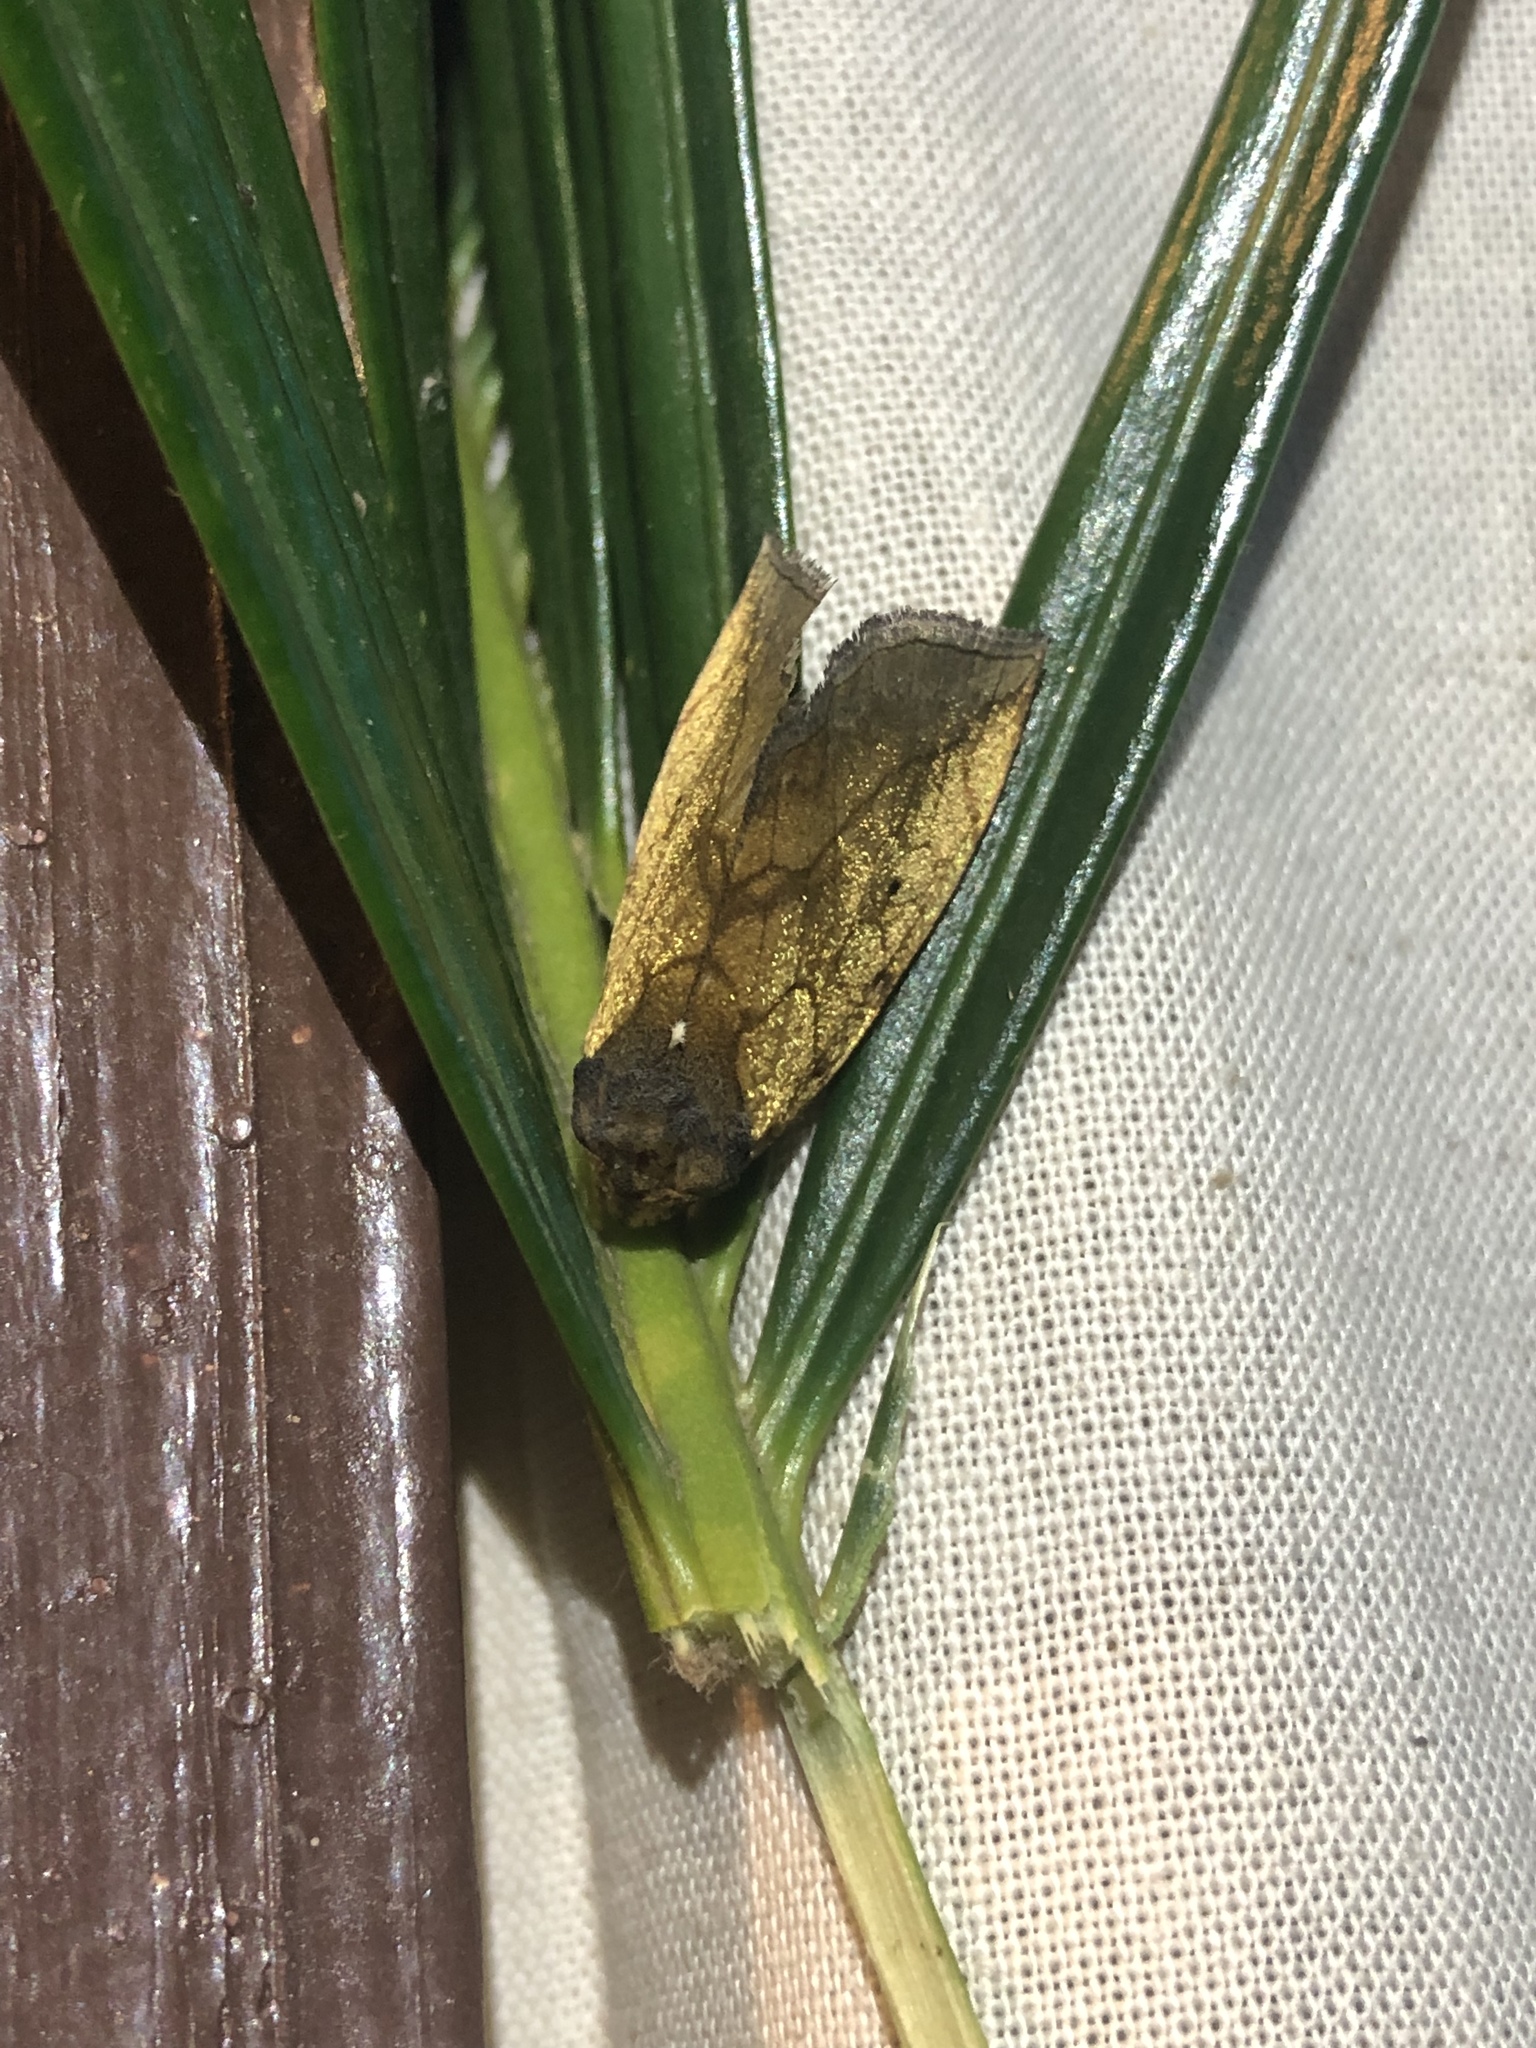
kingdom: Animalia
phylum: Arthropoda
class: Insecta
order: Lepidoptera
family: Noctuidae
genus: Basilodes
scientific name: Basilodes pepita
